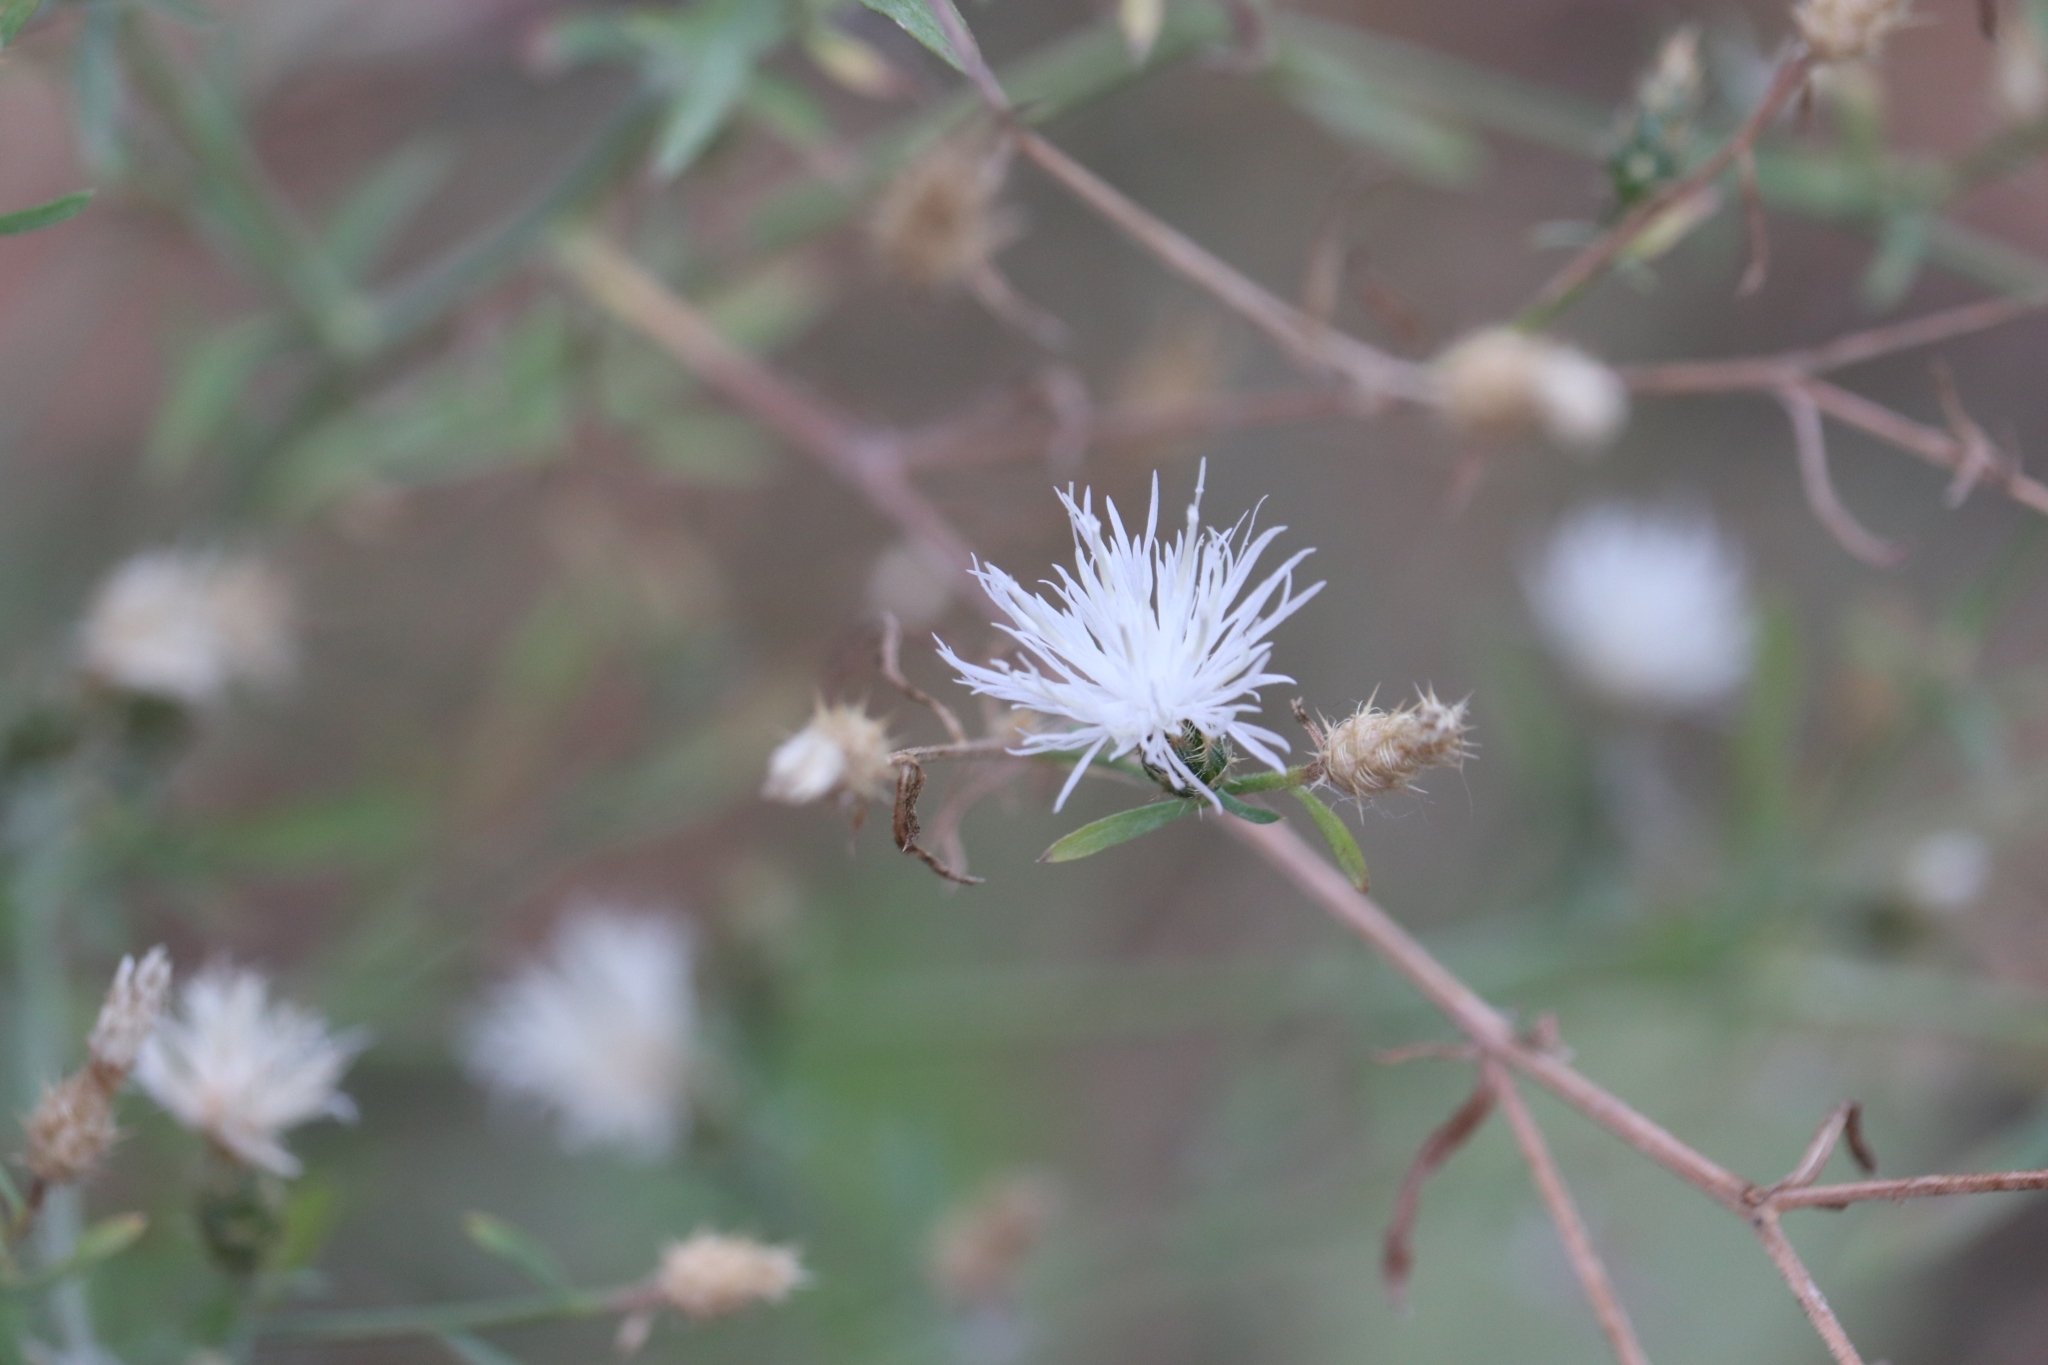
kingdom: Plantae
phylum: Tracheophyta
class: Magnoliopsida
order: Asterales
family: Asteraceae
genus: Centaurea
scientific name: Centaurea diffusa
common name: Diffuse knapweed
